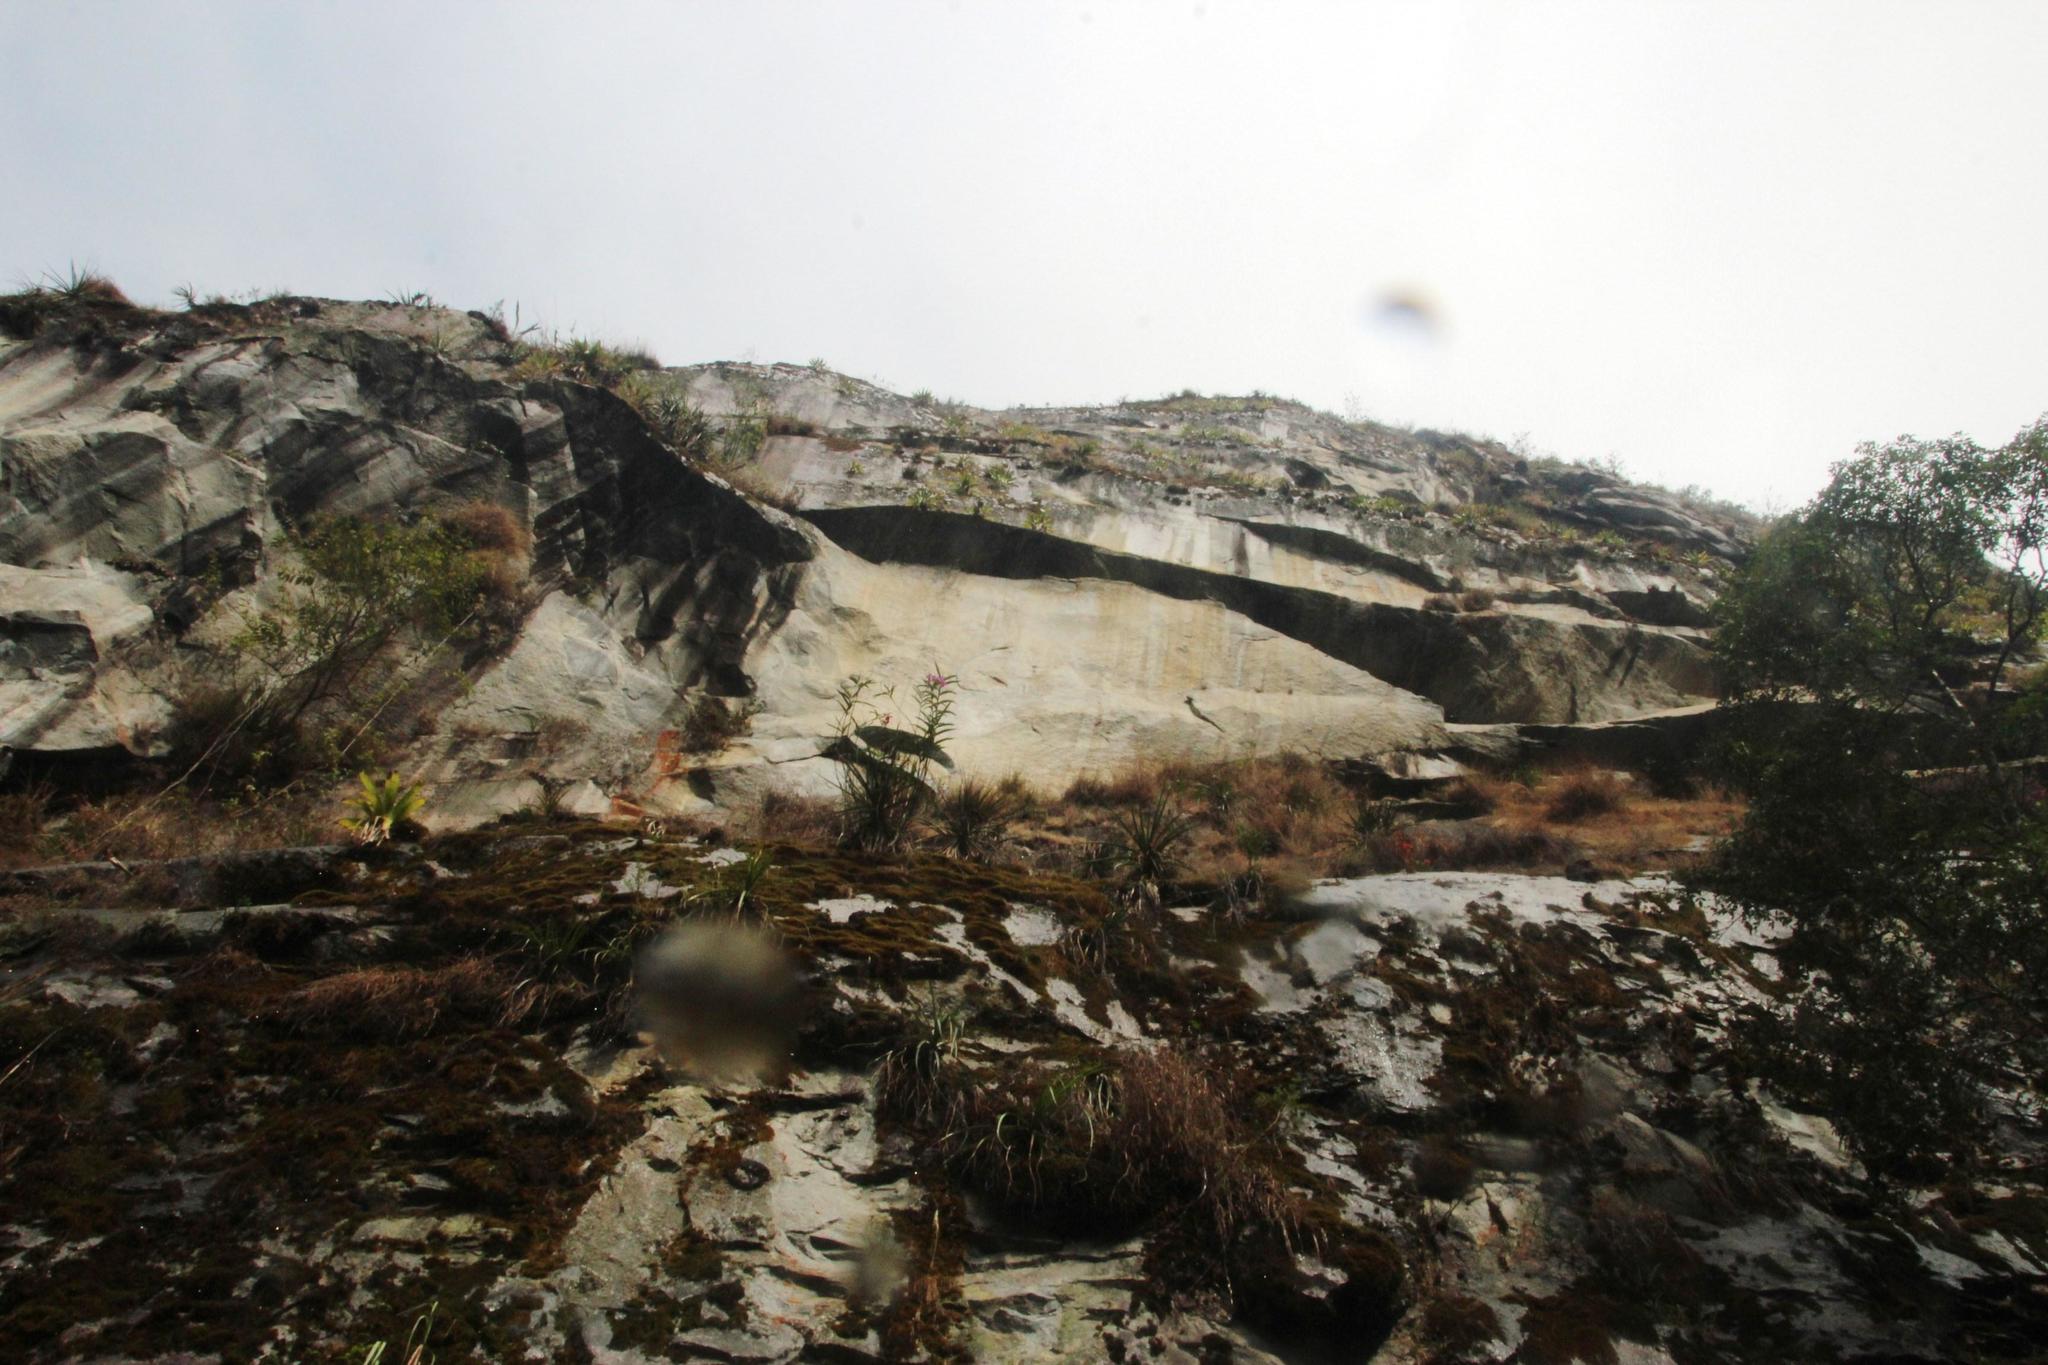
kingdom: Plantae
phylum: Tracheophyta
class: Liliopsida
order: Asparagales
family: Orchidaceae
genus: Sobralia
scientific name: Sobralia dichotoma
